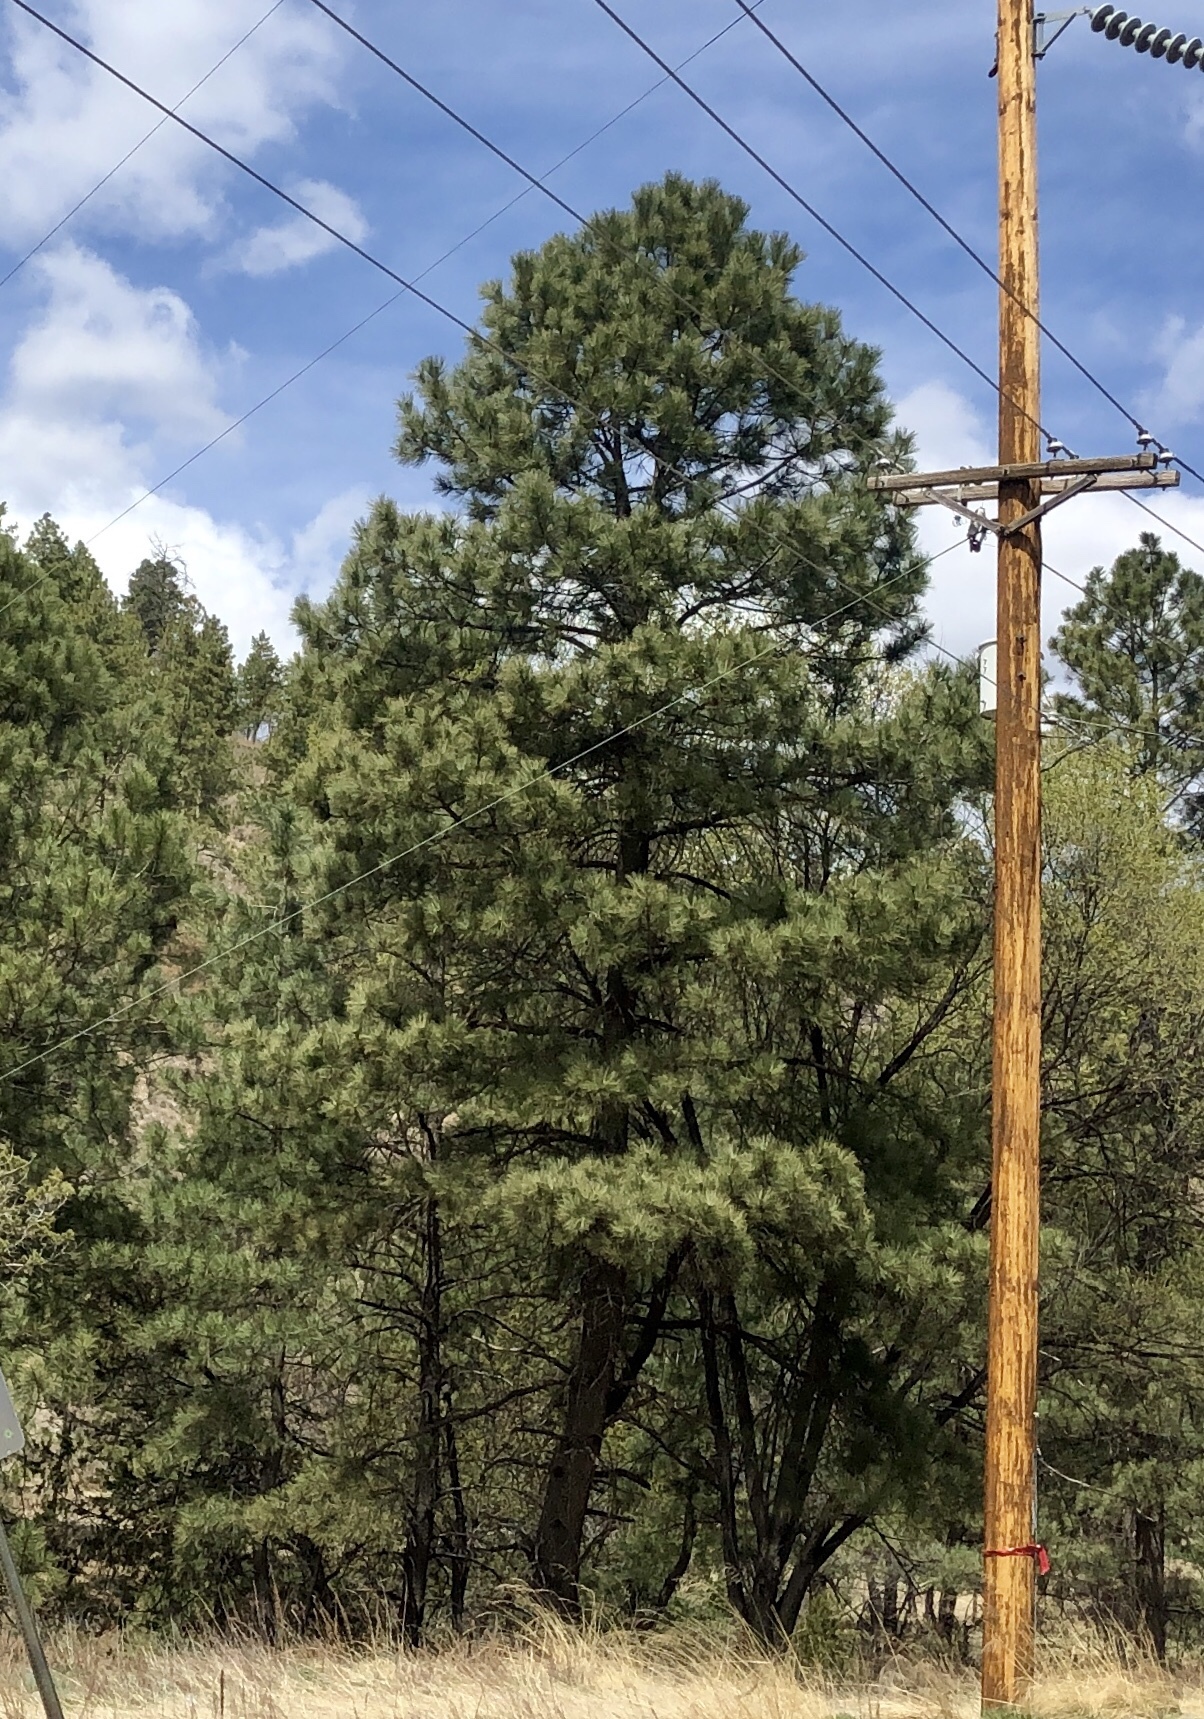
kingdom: Plantae
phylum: Tracheophyta
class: Pinopsida
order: Pinales
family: Pinaceae
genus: Pinus
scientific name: Pinus ponderosa
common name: Western yellow-pine
